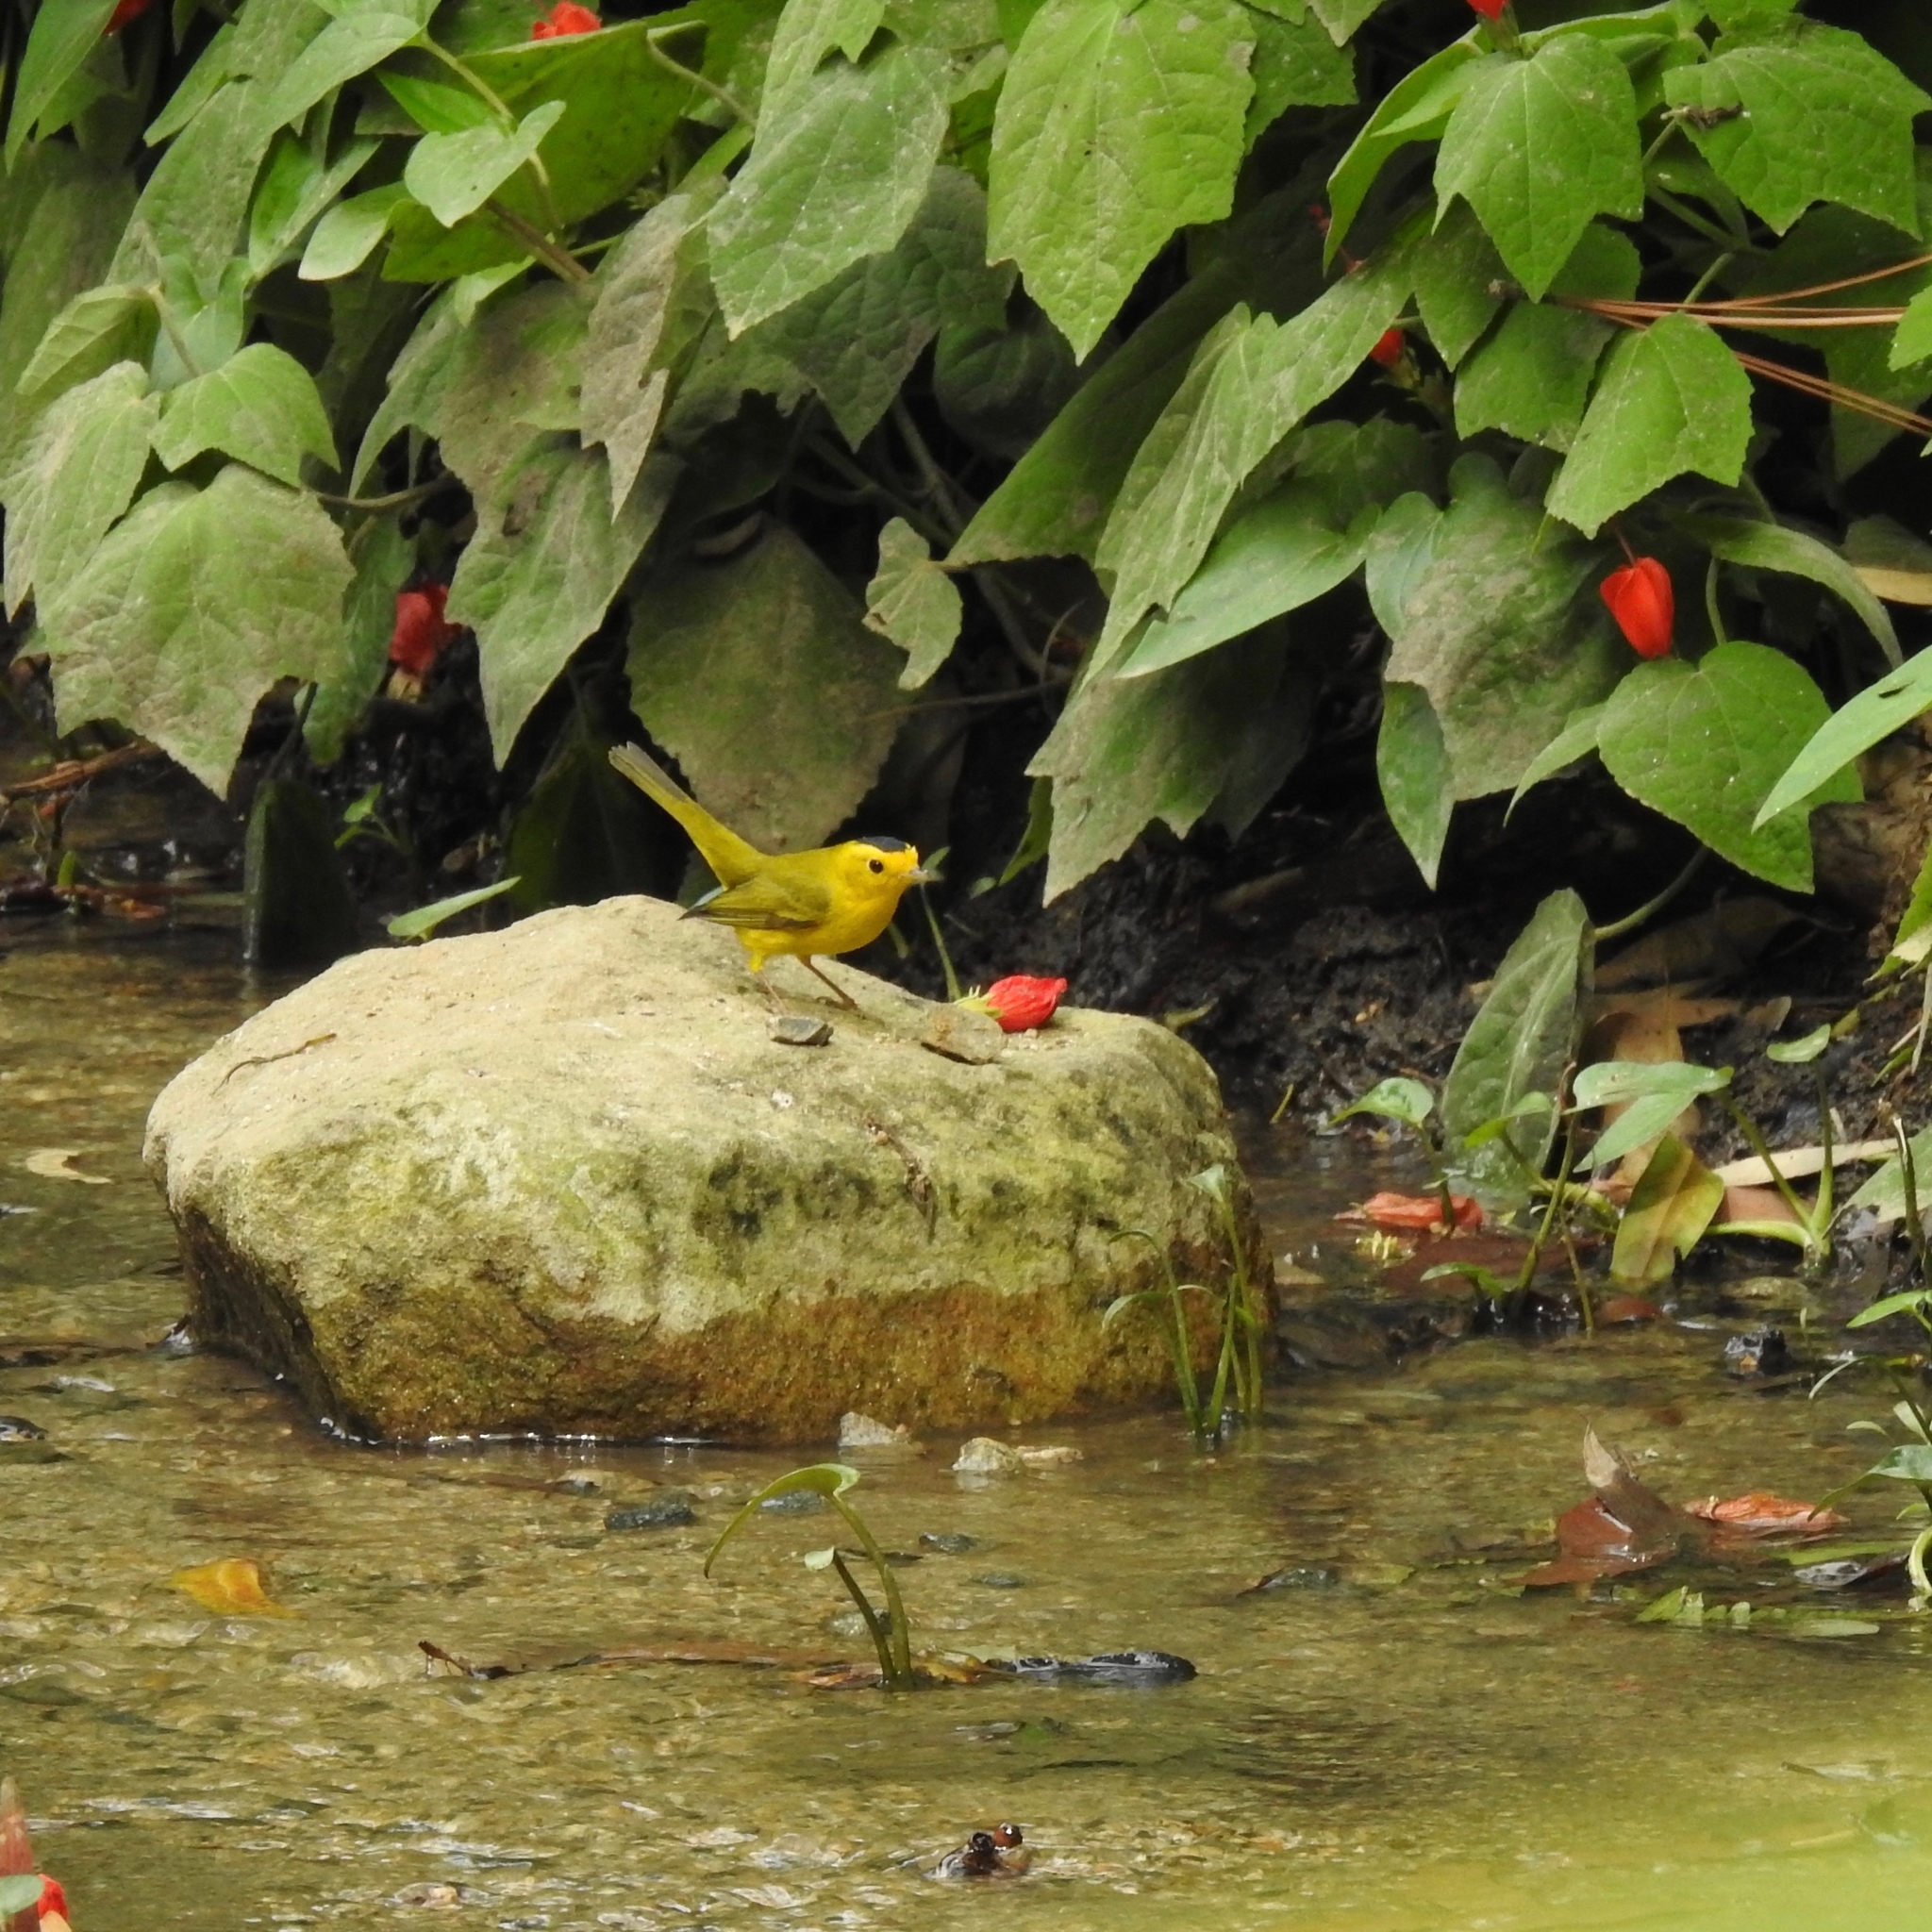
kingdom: Animalia
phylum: Chordata
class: Aves
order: Passeriformes
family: Parulidae
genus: Cardellina
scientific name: Cardellina pusilla
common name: Wilson's warbler
